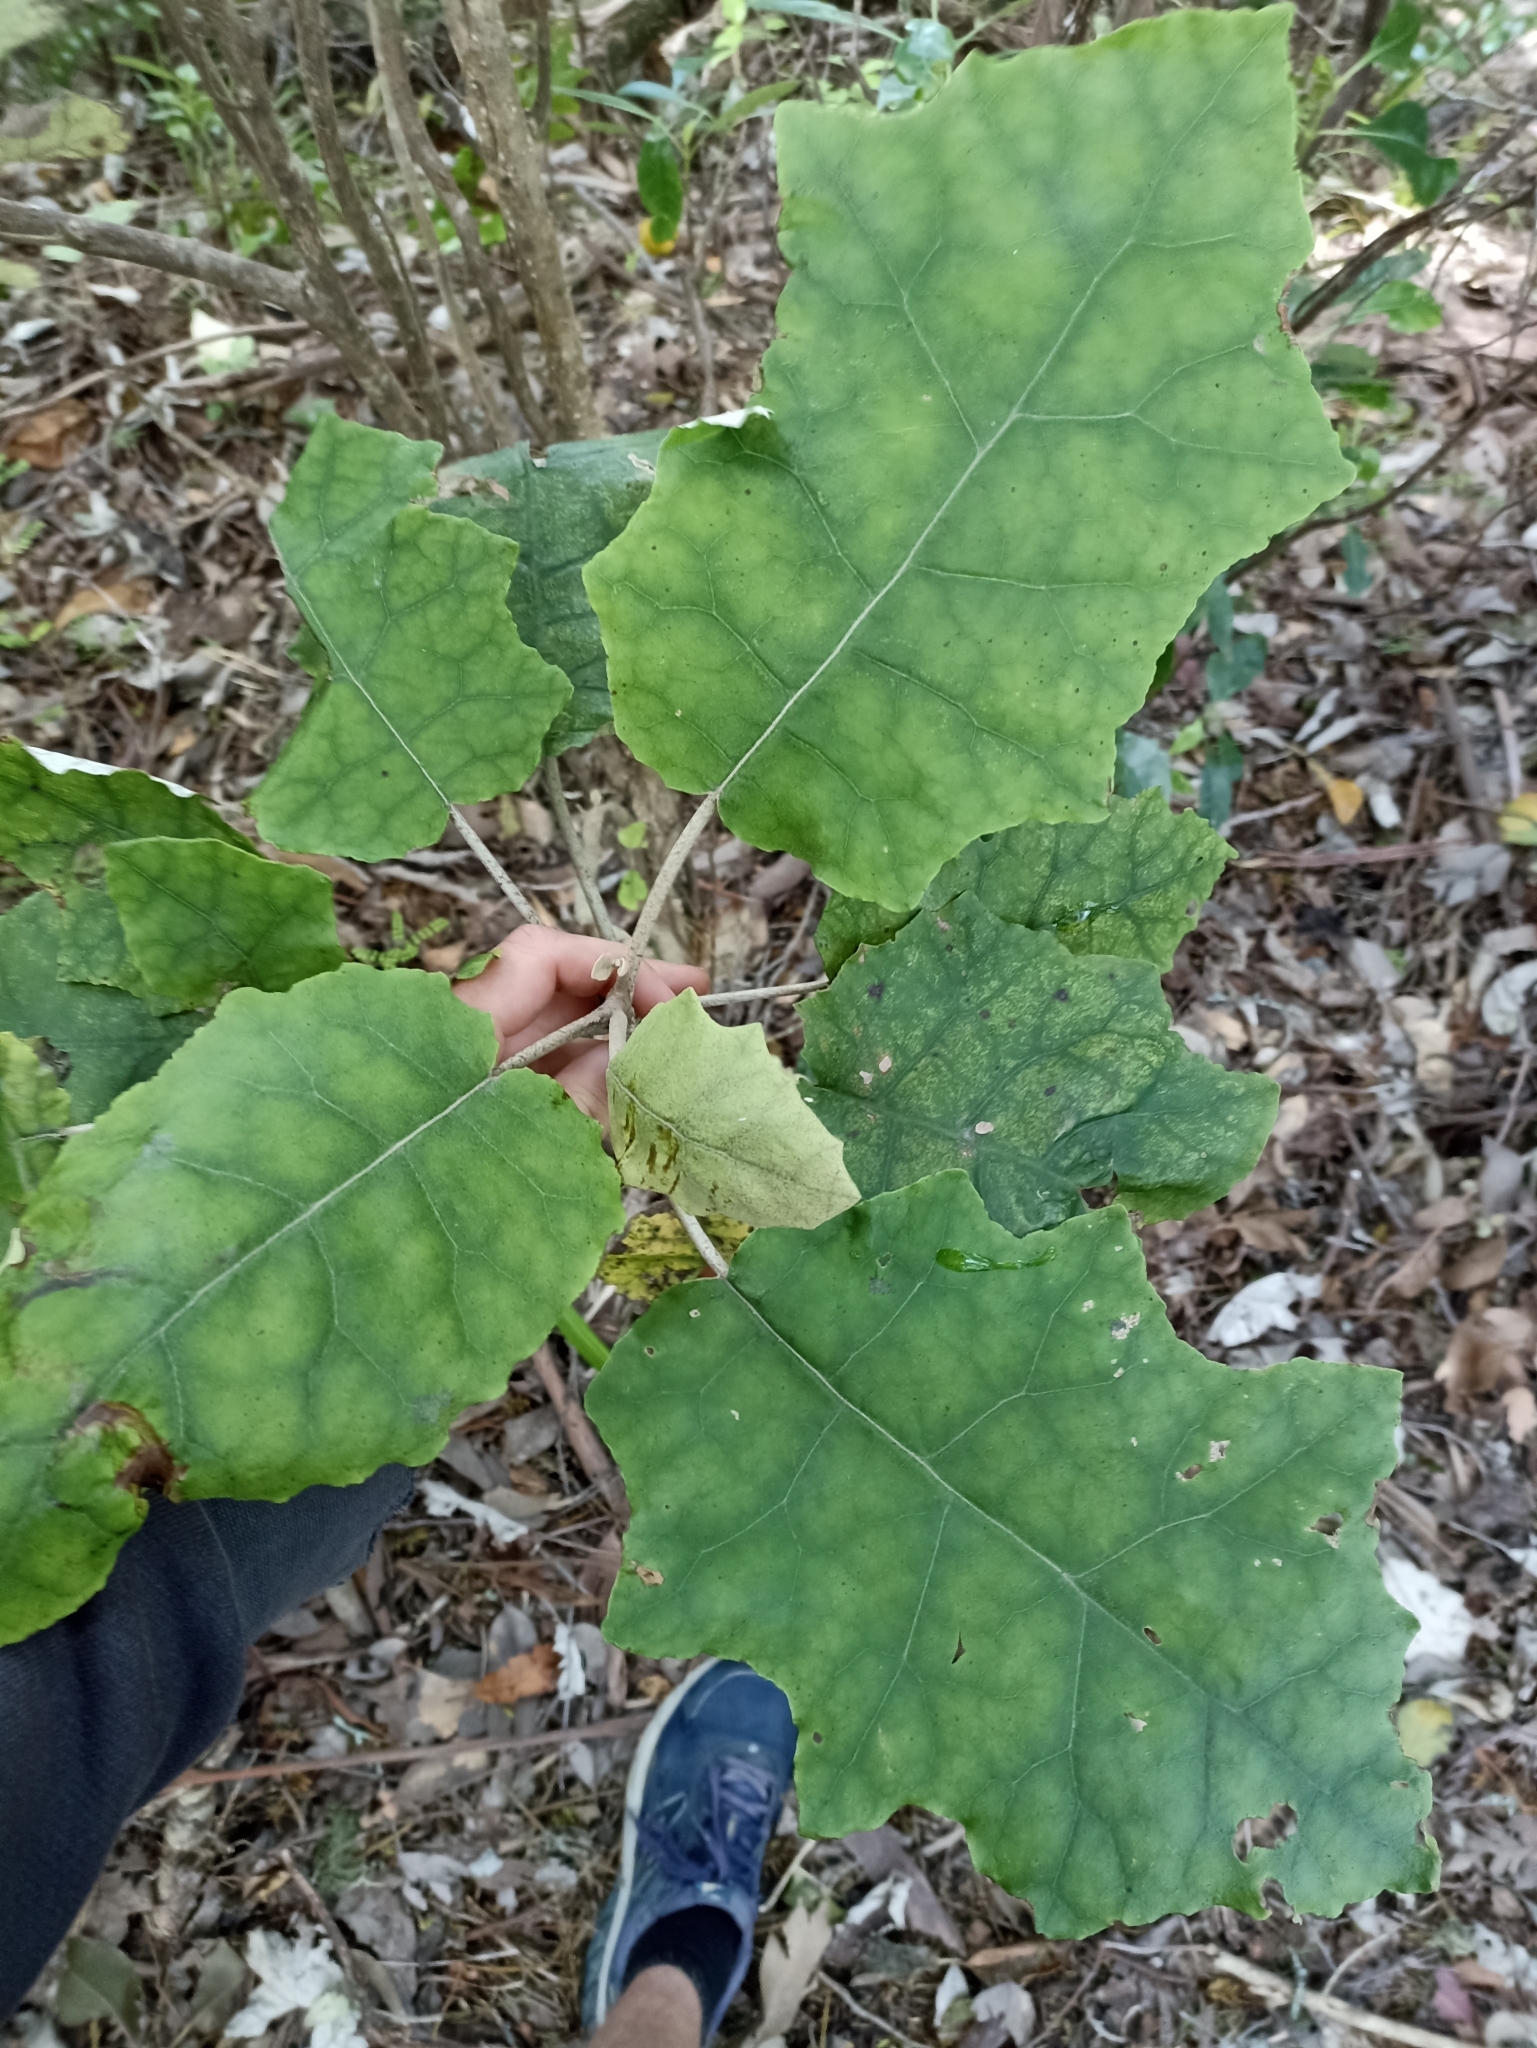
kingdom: Plantae
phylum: Tracheophyta
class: Magnoliopsida
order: Asterales
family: Asteraceae
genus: Brachyglottis
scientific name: Brachyglottis repanda
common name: Hedge ragwort
